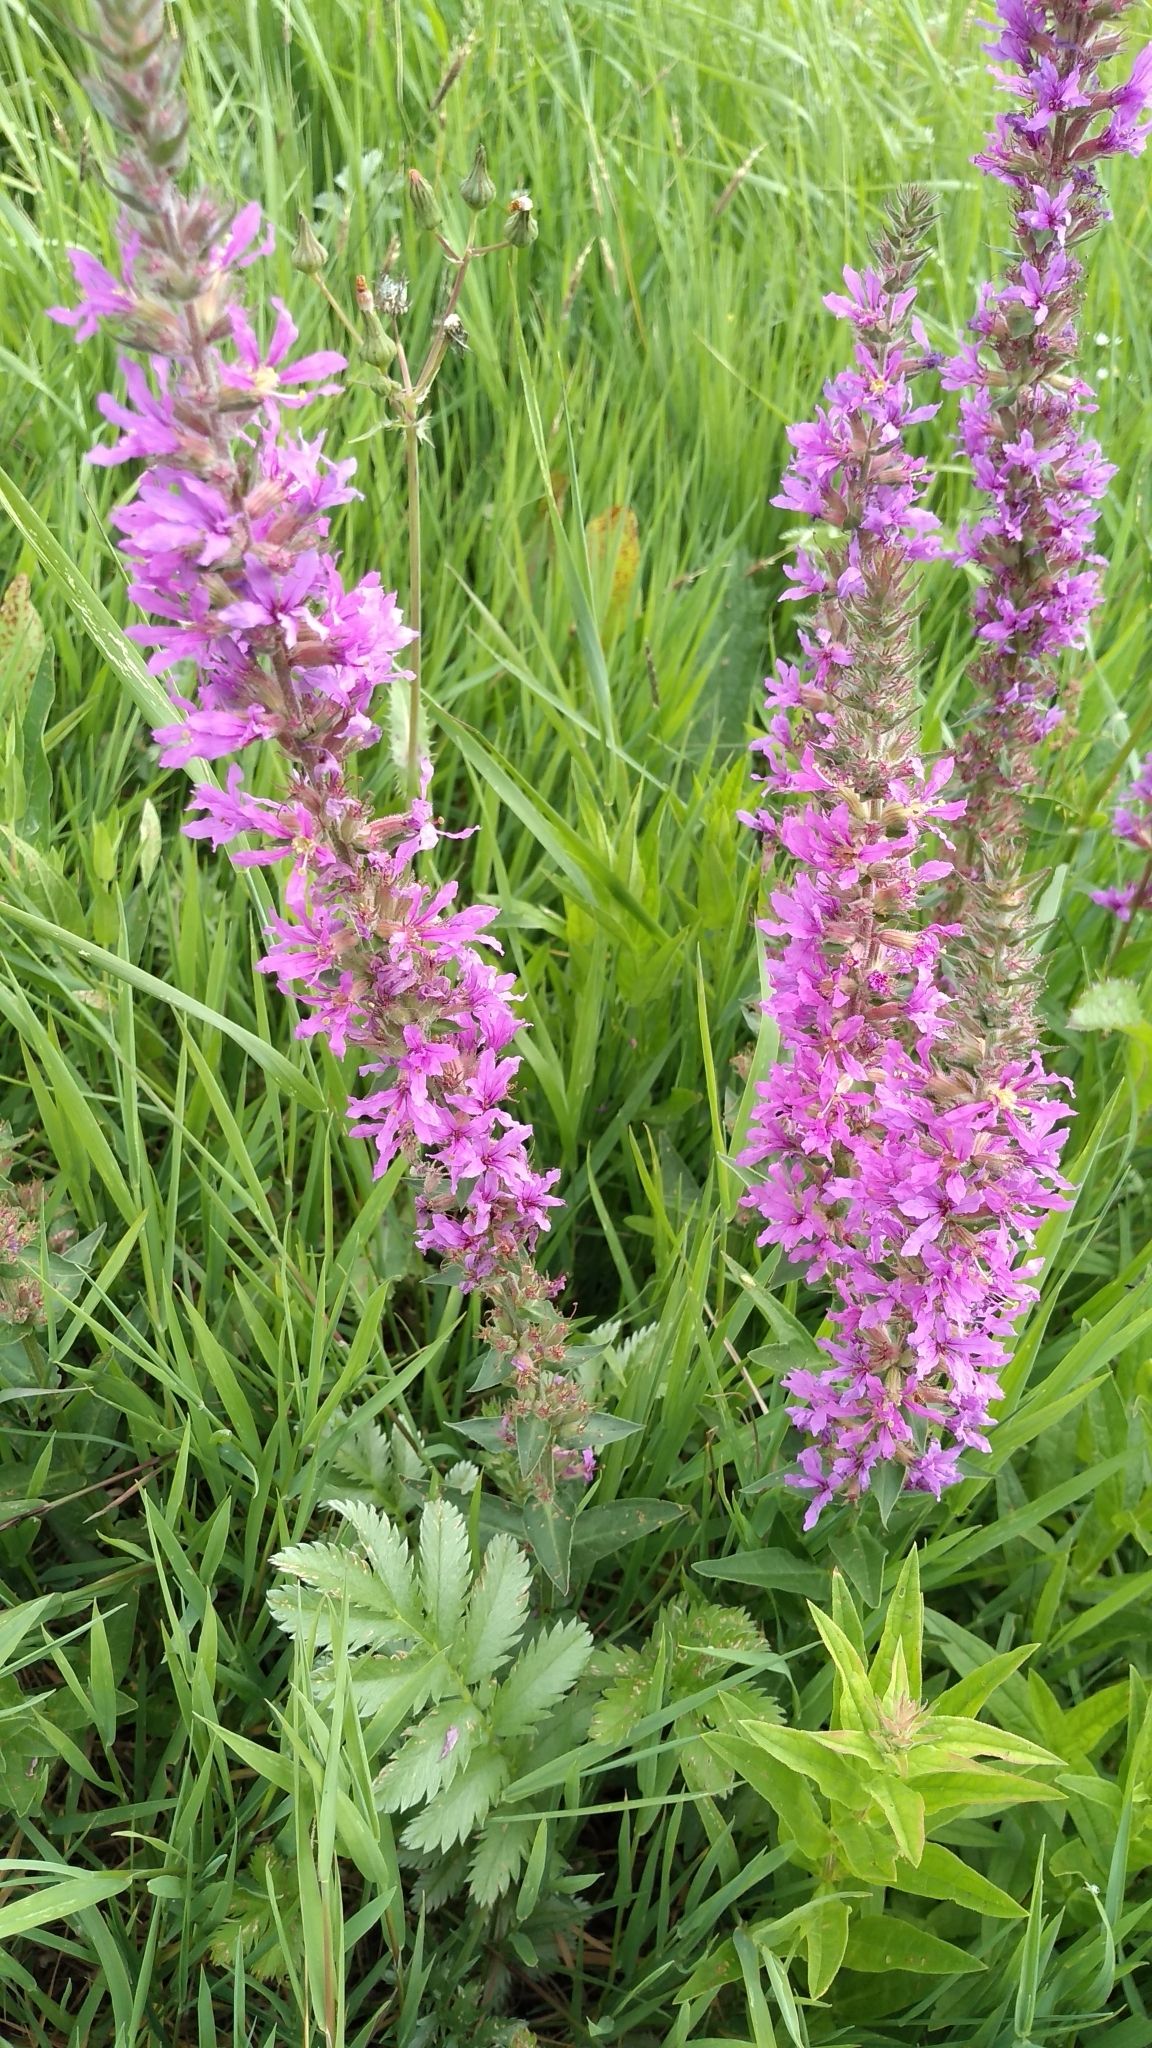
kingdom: Plantae
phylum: Tracheophyta
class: Magnoliopsida
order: Myrtales
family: Lythraceae
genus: Lythrum
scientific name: Lythrum salicaria
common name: Purple loosestrife
